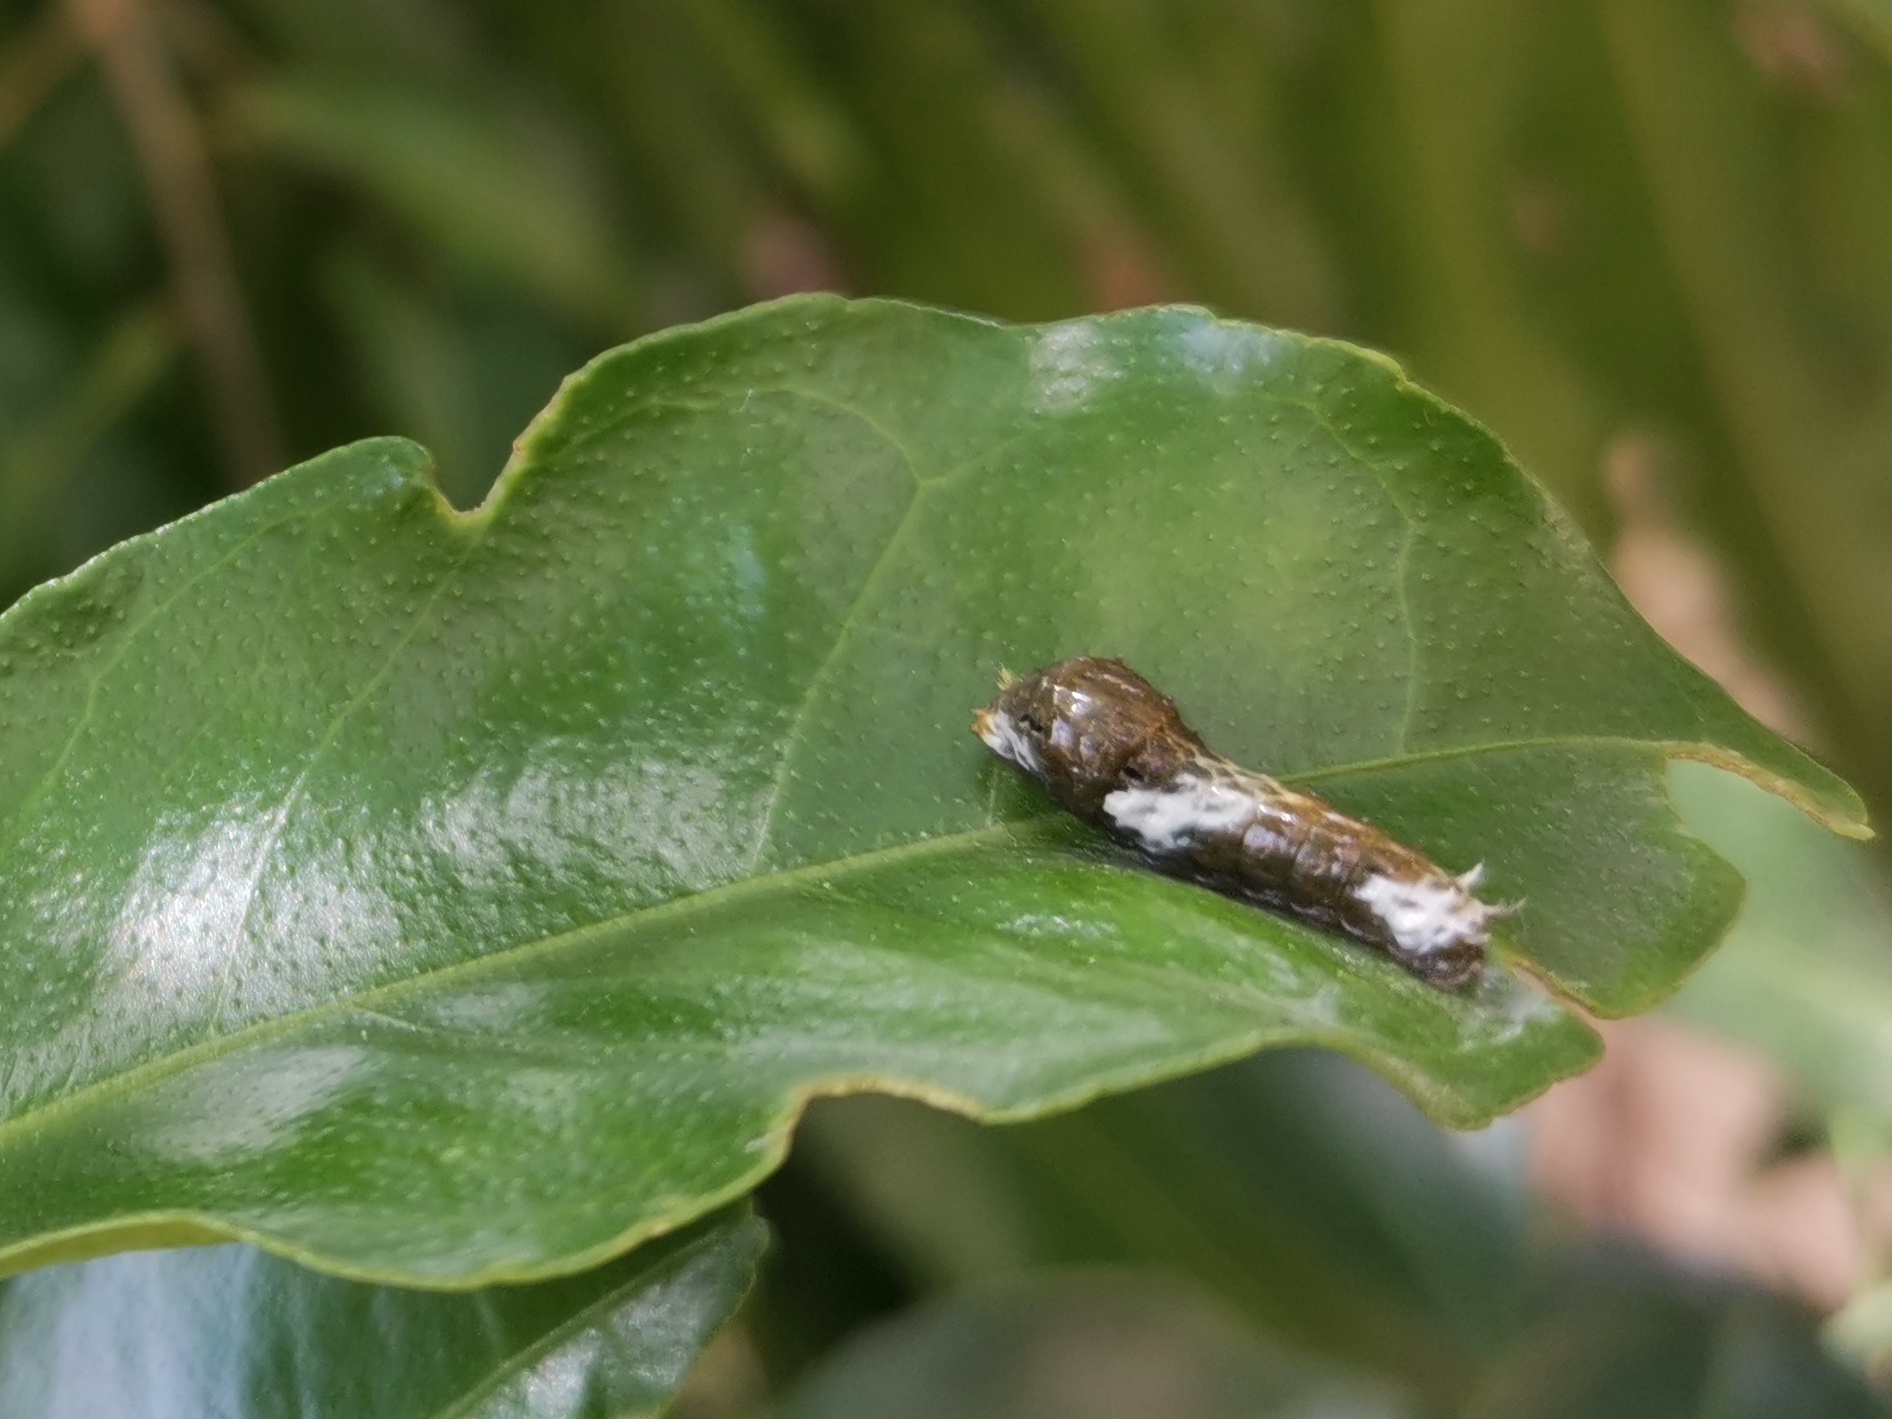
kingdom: Animalia
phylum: Arthropoda
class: Insecta
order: Lepidoptera
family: Papilionidae
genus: Papilio
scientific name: Papilio polytes
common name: Common mormon
